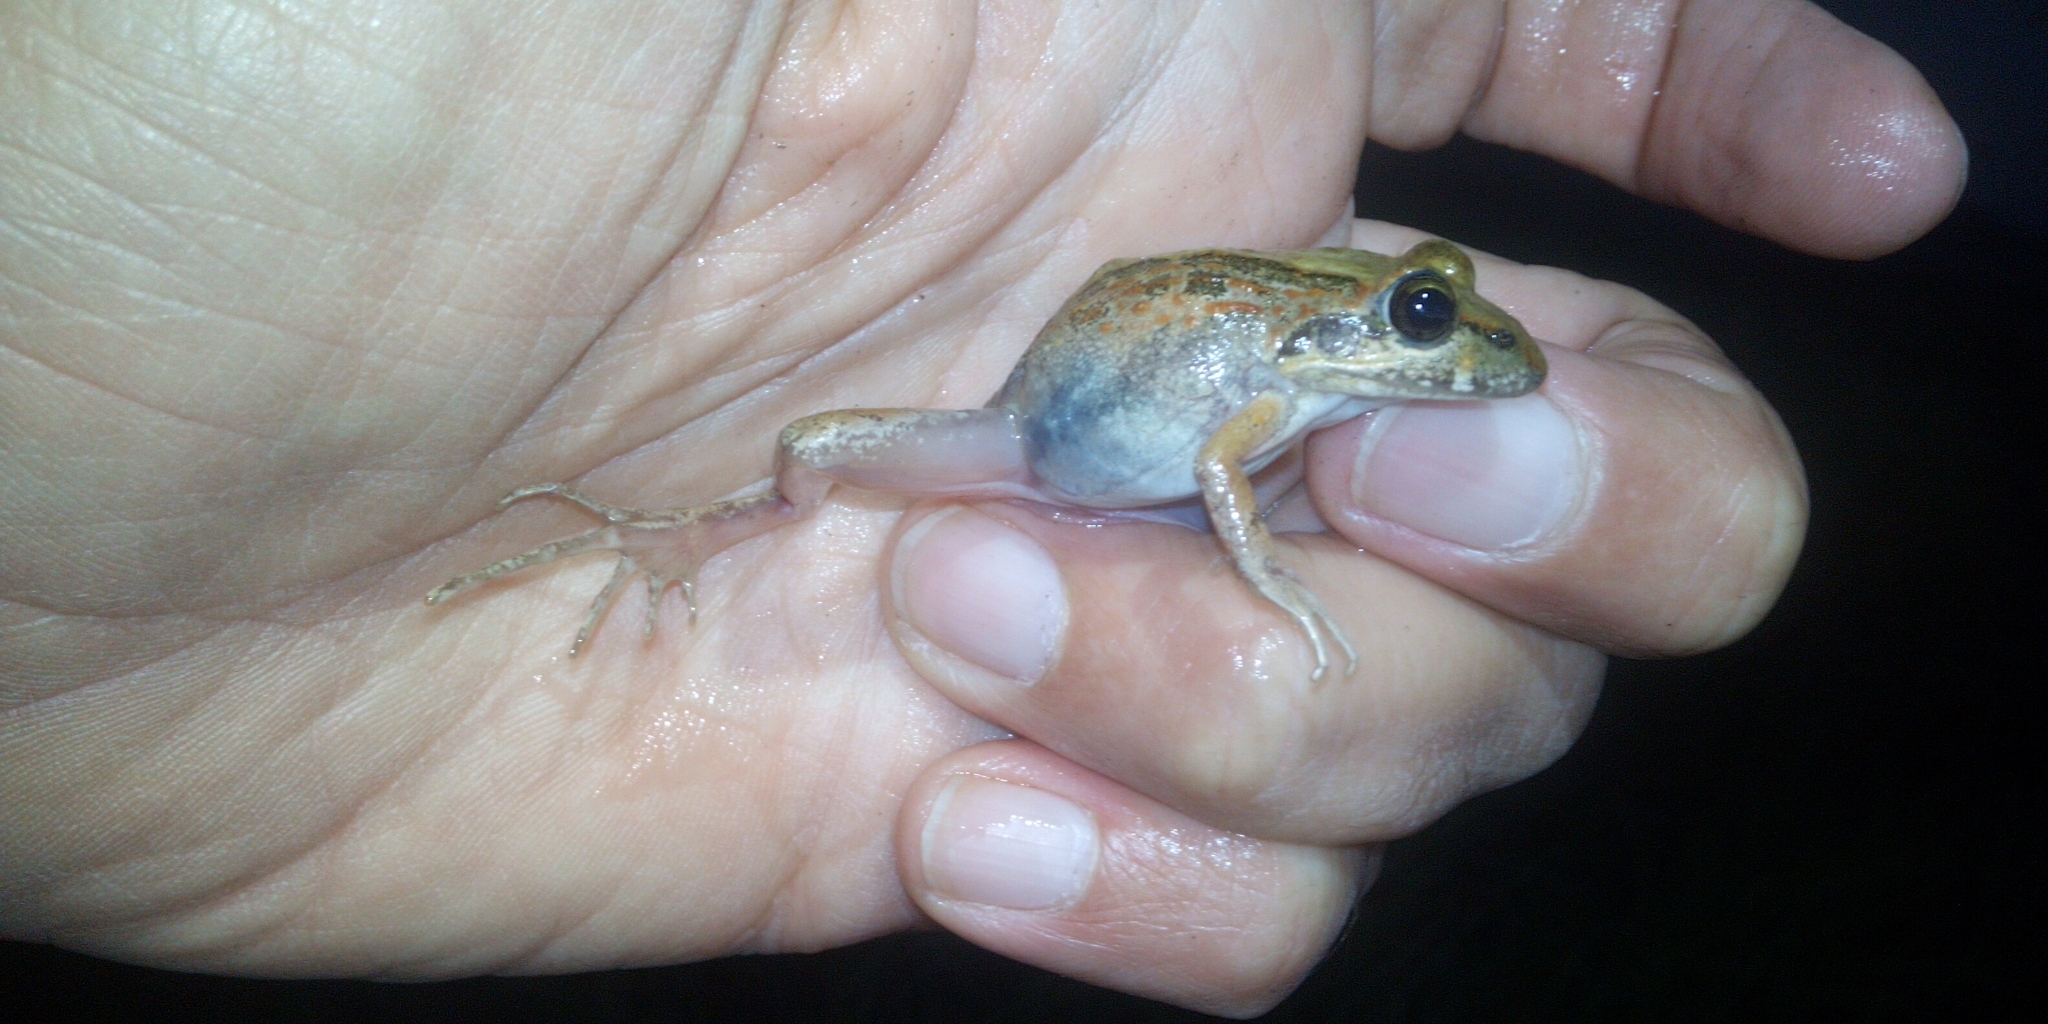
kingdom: Animalia
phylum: Chordata
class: Amphibia
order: Anura
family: Pyxicephalidae
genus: Strongylopus
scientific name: Strongylopus grayii
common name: Gray's stream frog
